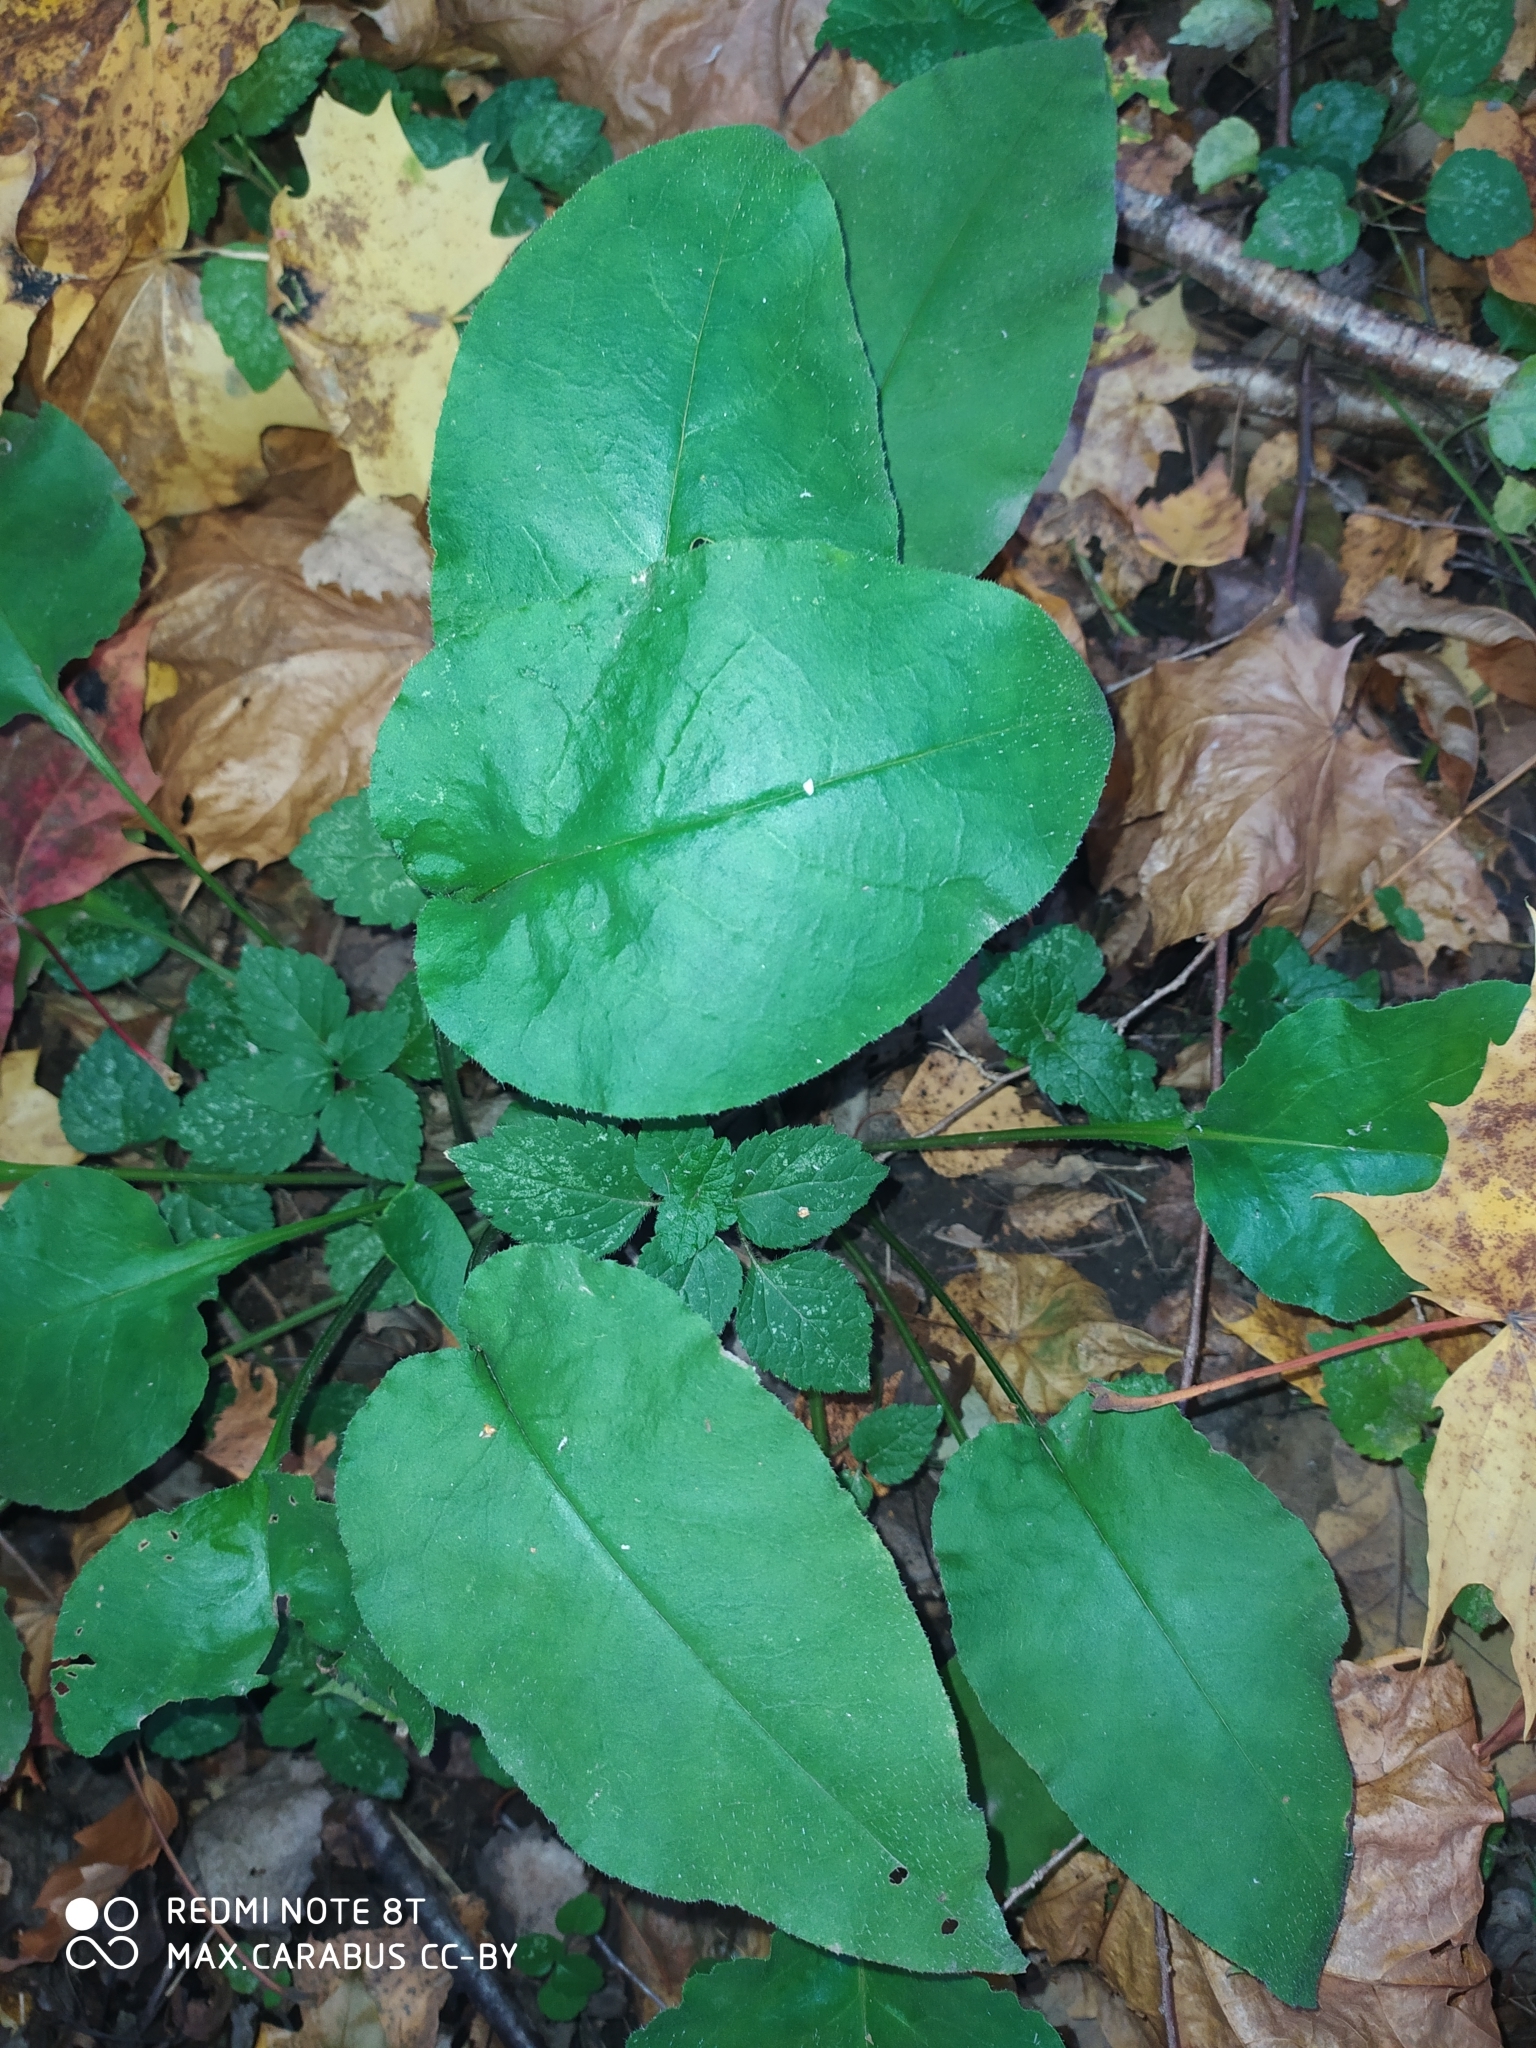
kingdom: Plantae
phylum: Tracheophyta
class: Magnoliopsida
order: Boraginales
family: Boraginaceae
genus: Pulmonaria
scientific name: Pulmonaria obscura
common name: Suffolk lungwort
